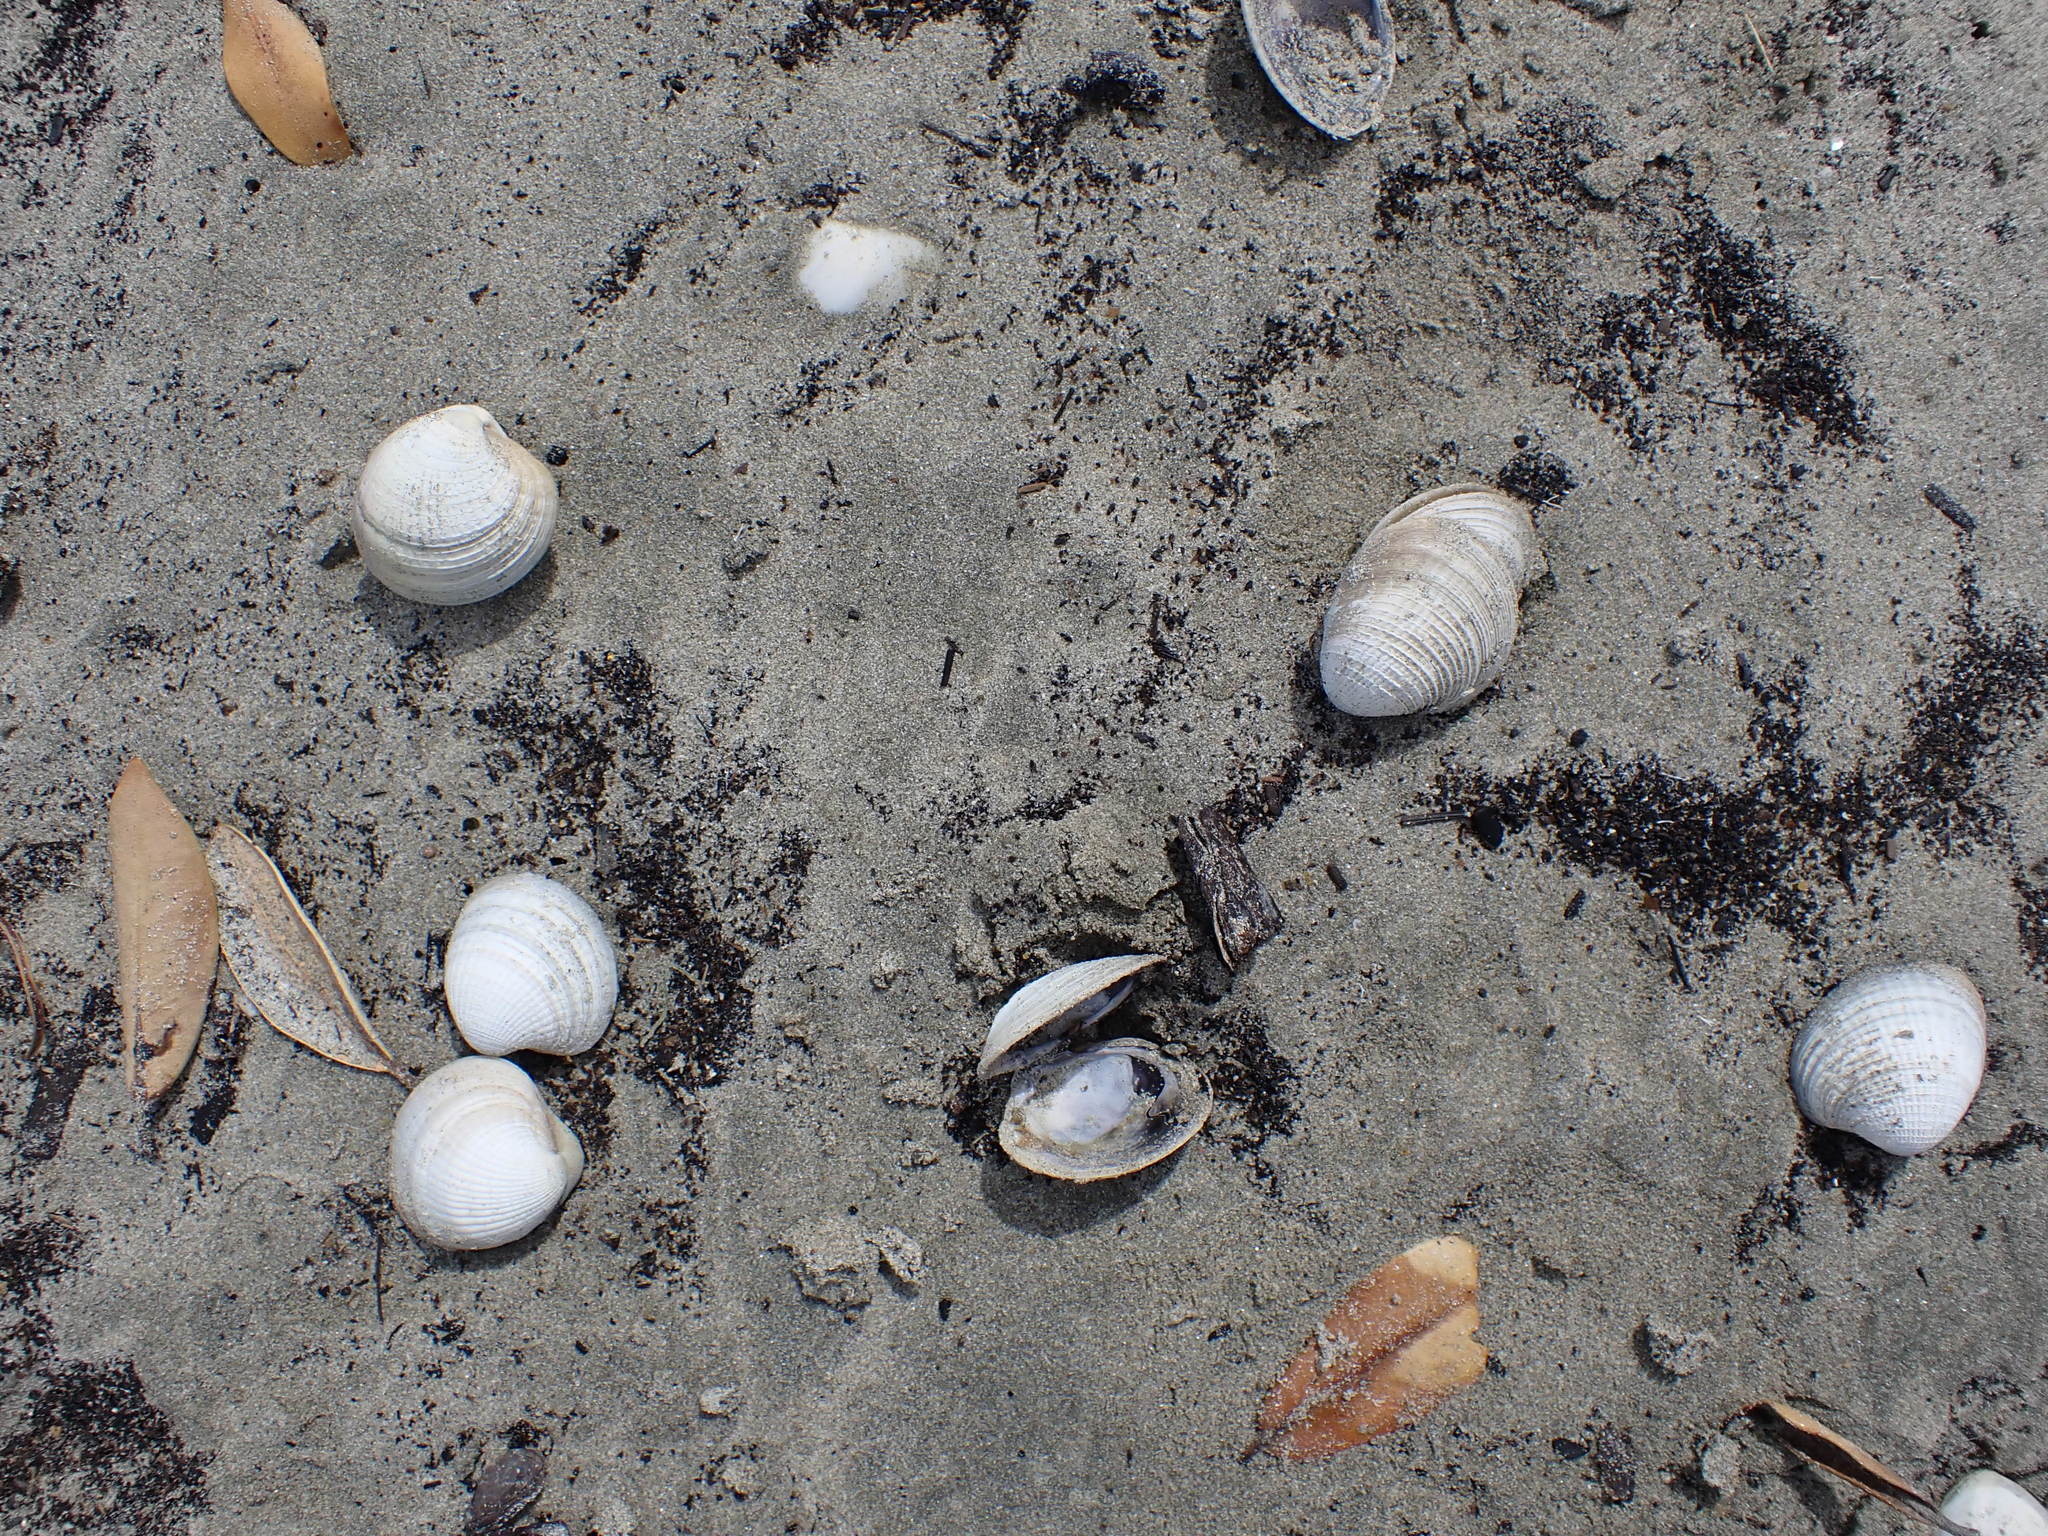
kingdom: Animalia
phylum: Mollusca
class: Bivalvia
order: Venerida
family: Veneridae
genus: Austrovenus
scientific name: Austrovenus stutchburyi
